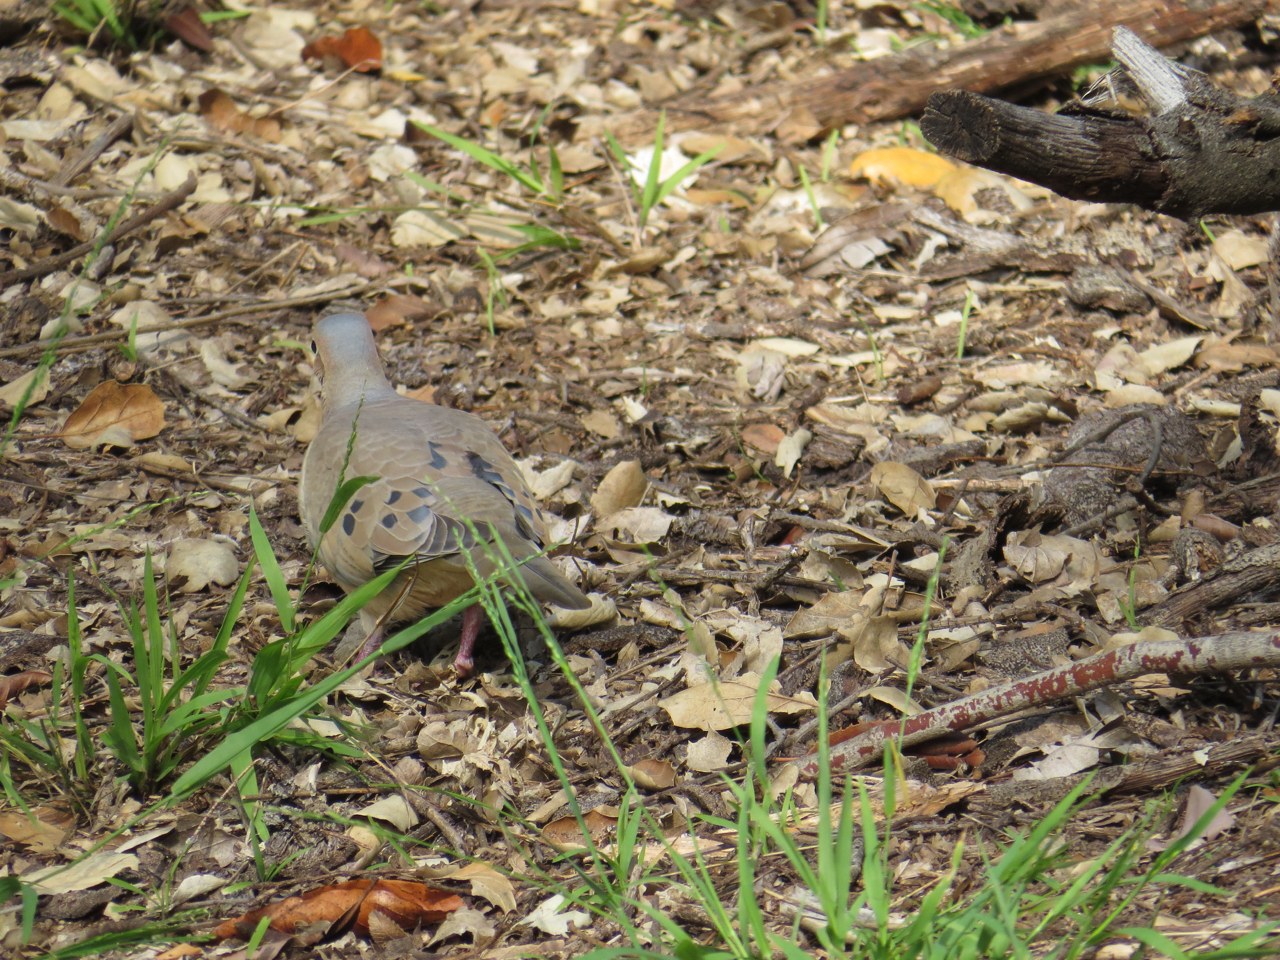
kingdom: Animalia
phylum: Chordata
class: Aves
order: Columbiformes
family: Columbidae
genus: Zenaida
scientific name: Zenaida macroura
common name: Mourning dove
